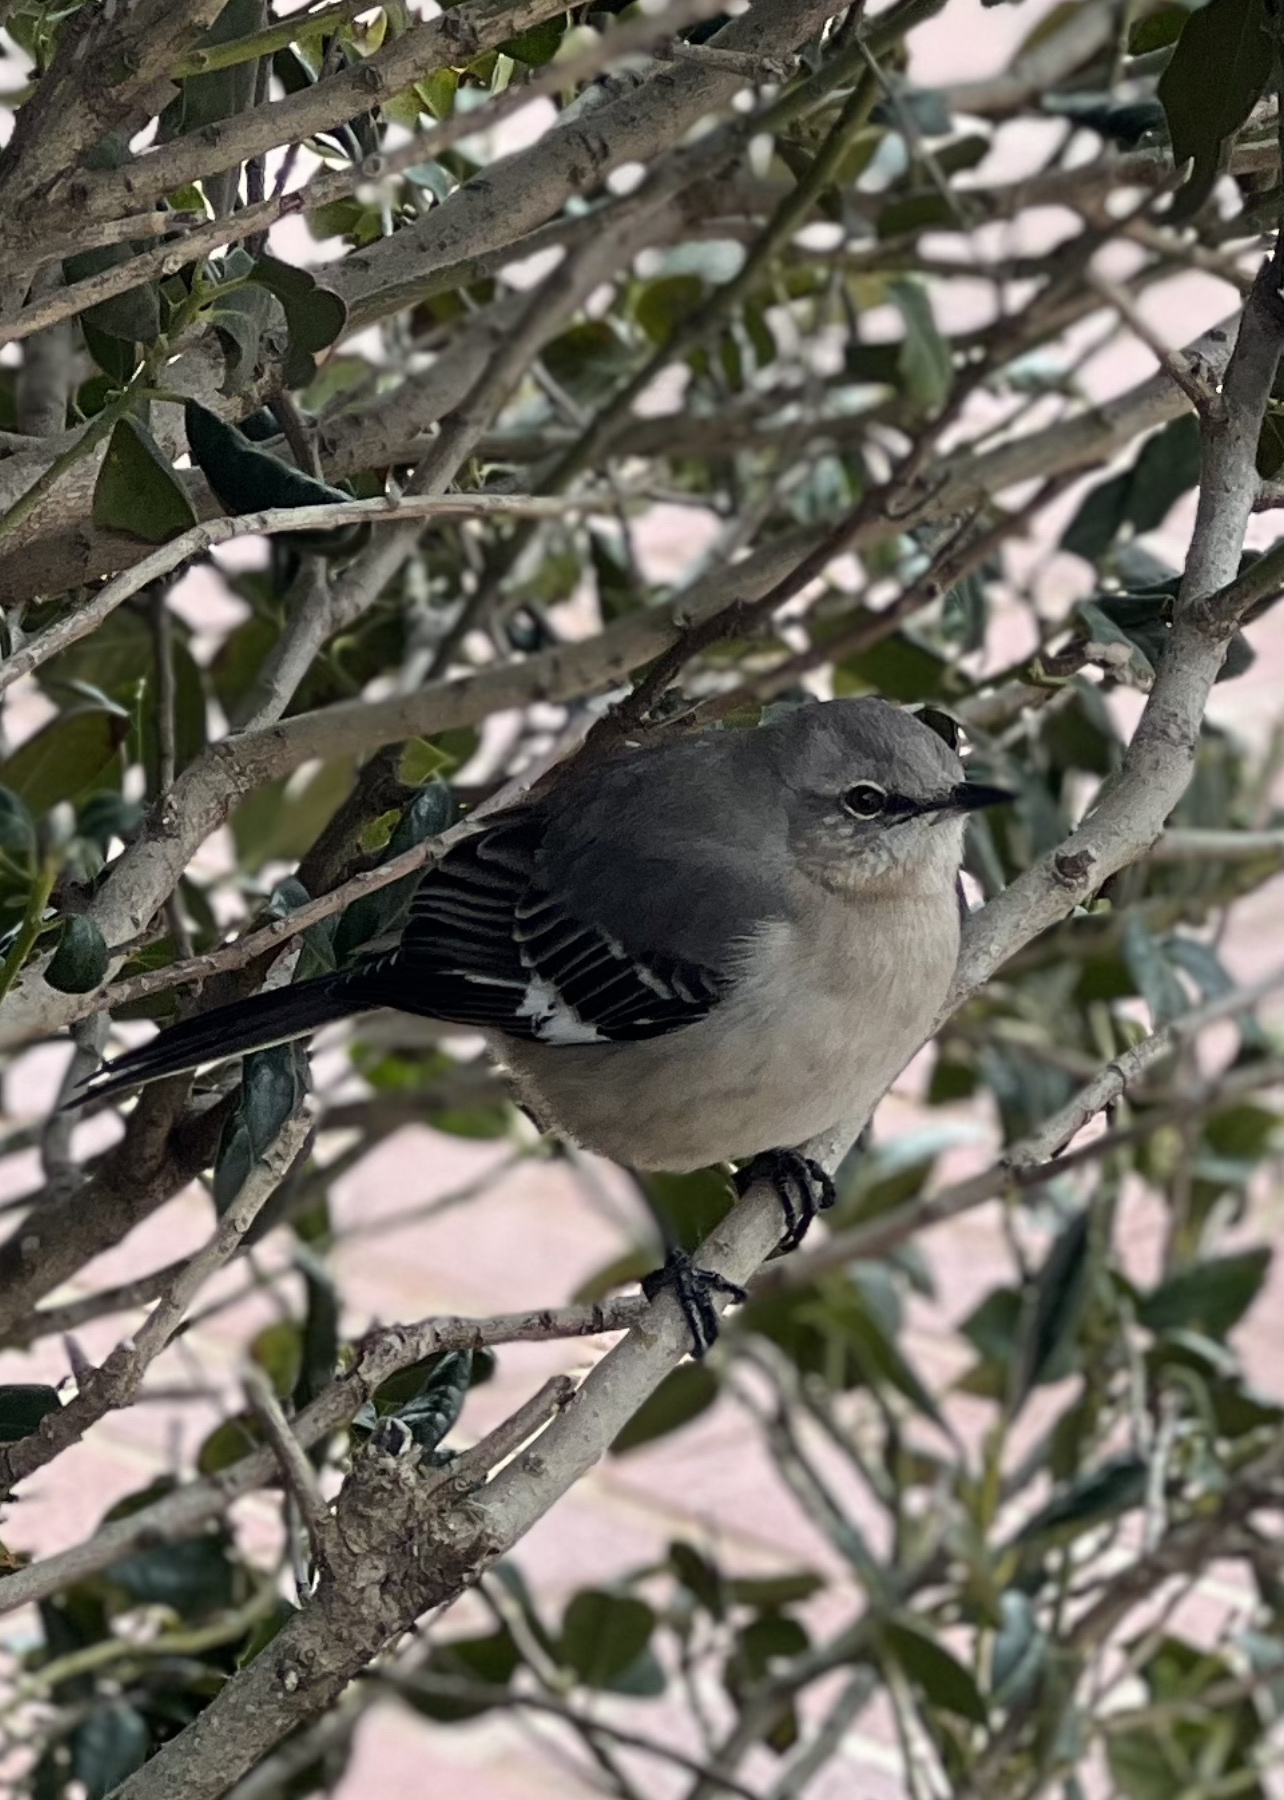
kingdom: Animalia
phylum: Chordata
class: Aves
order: Passeriformes
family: Mimidae
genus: Mimus
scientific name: Mimus polyglottos
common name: Northern mockingbird
